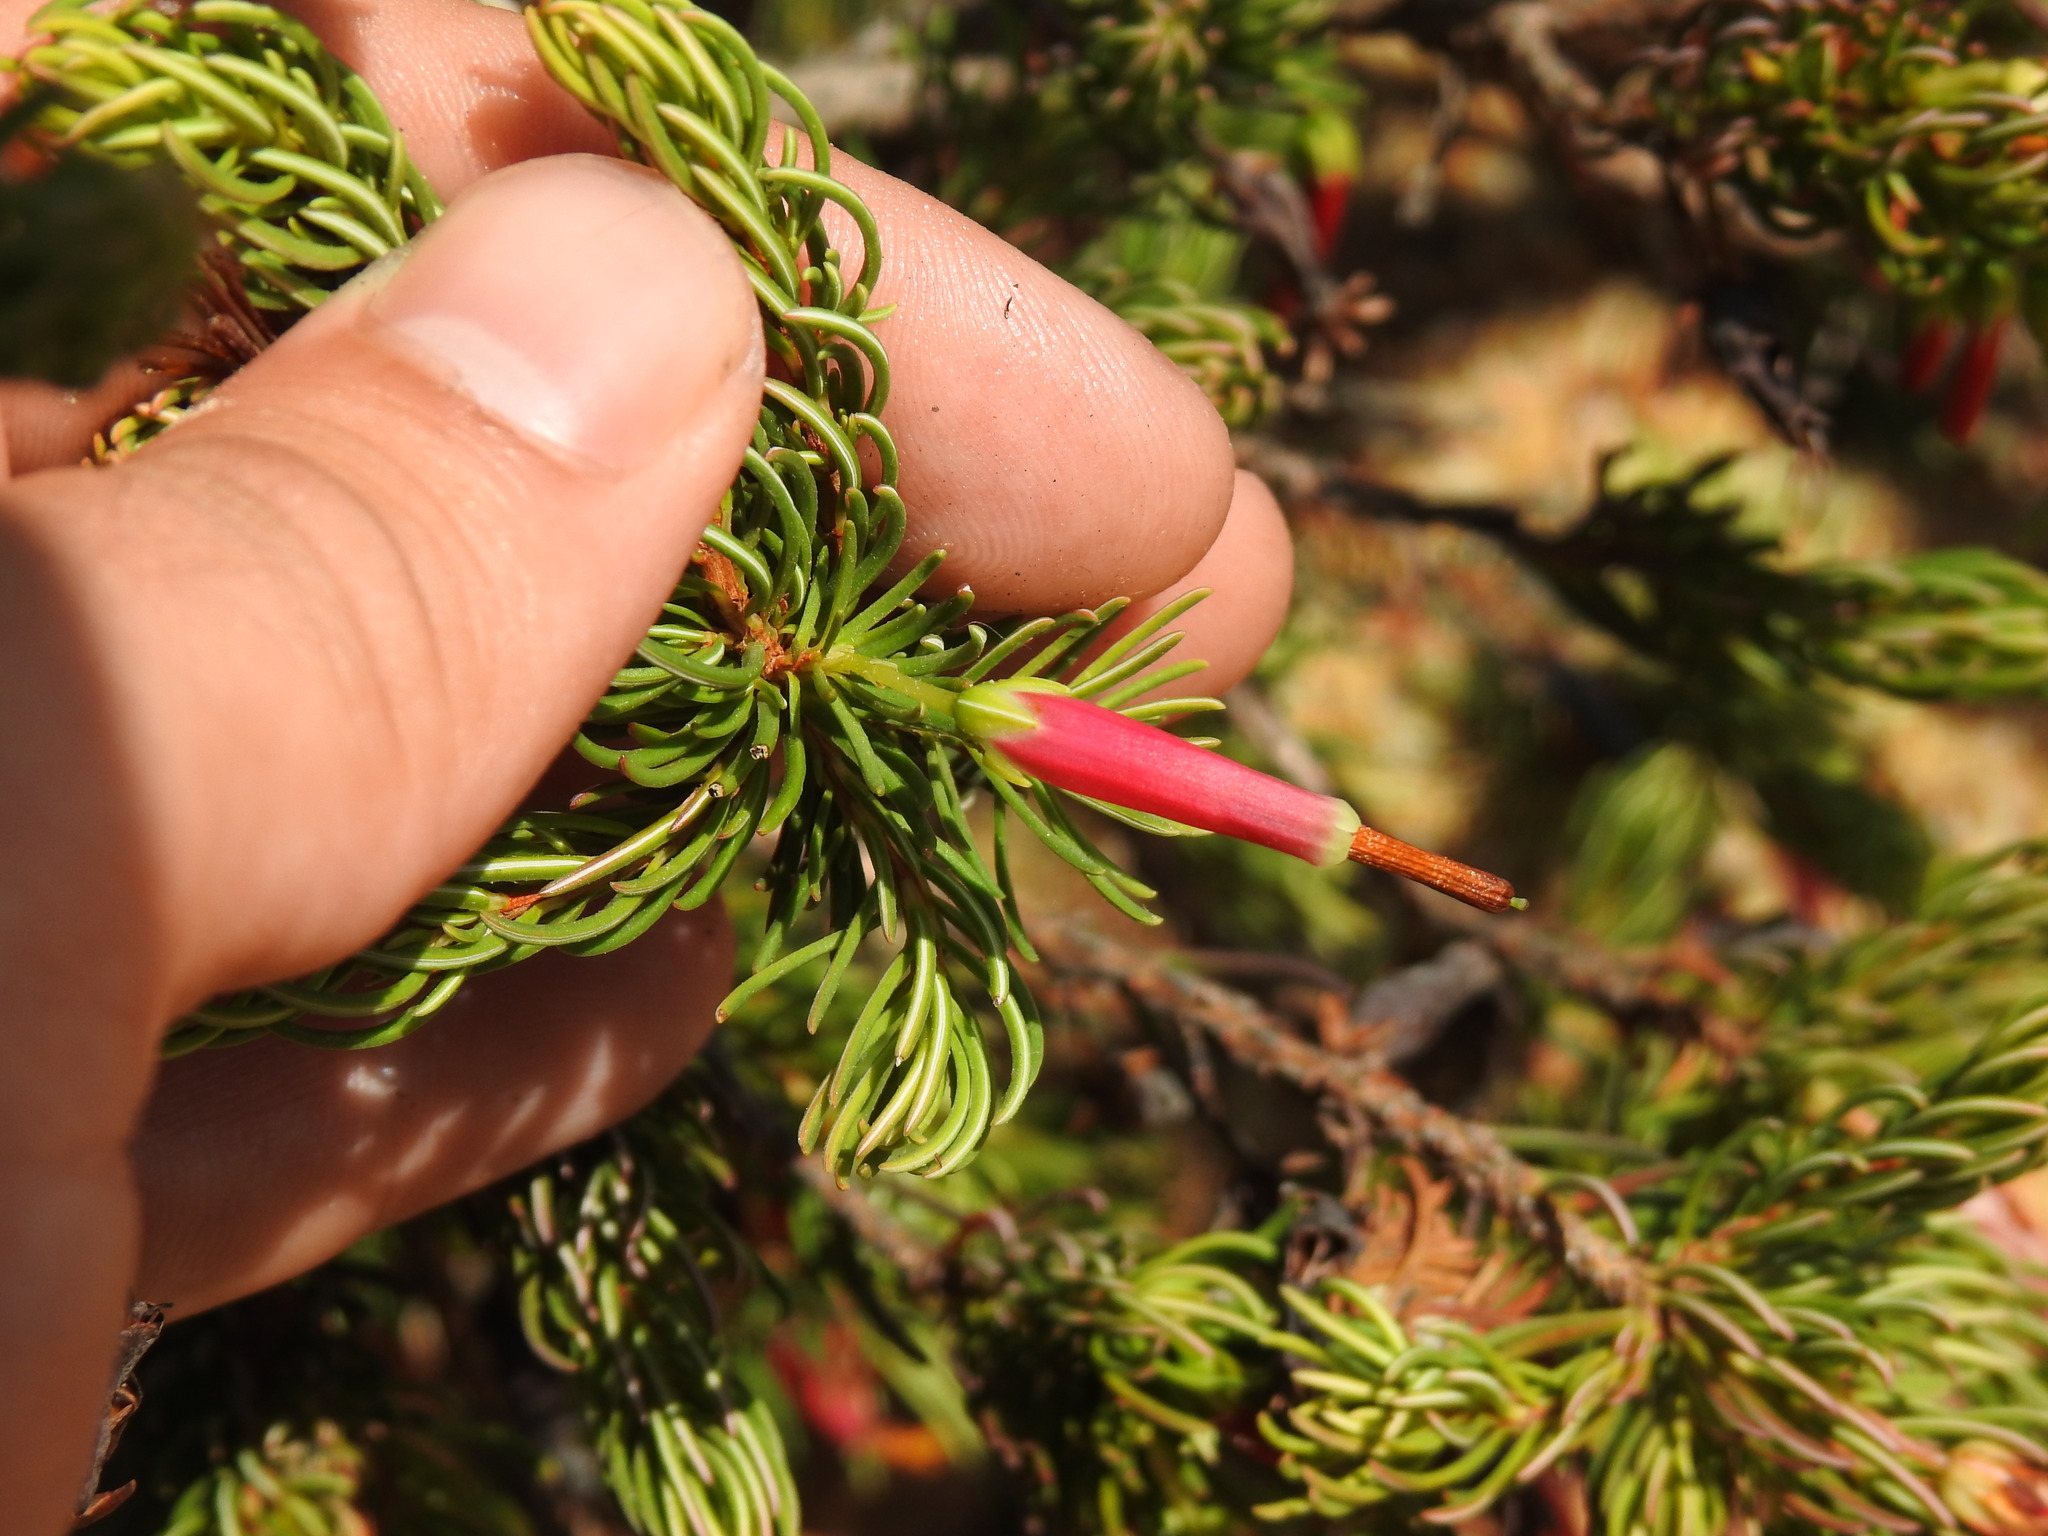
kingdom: Plantae
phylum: Tracheophyta
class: Magnoliopsida
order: Ericales
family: Ericaceae
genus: Erica
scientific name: Erica plukenetii
